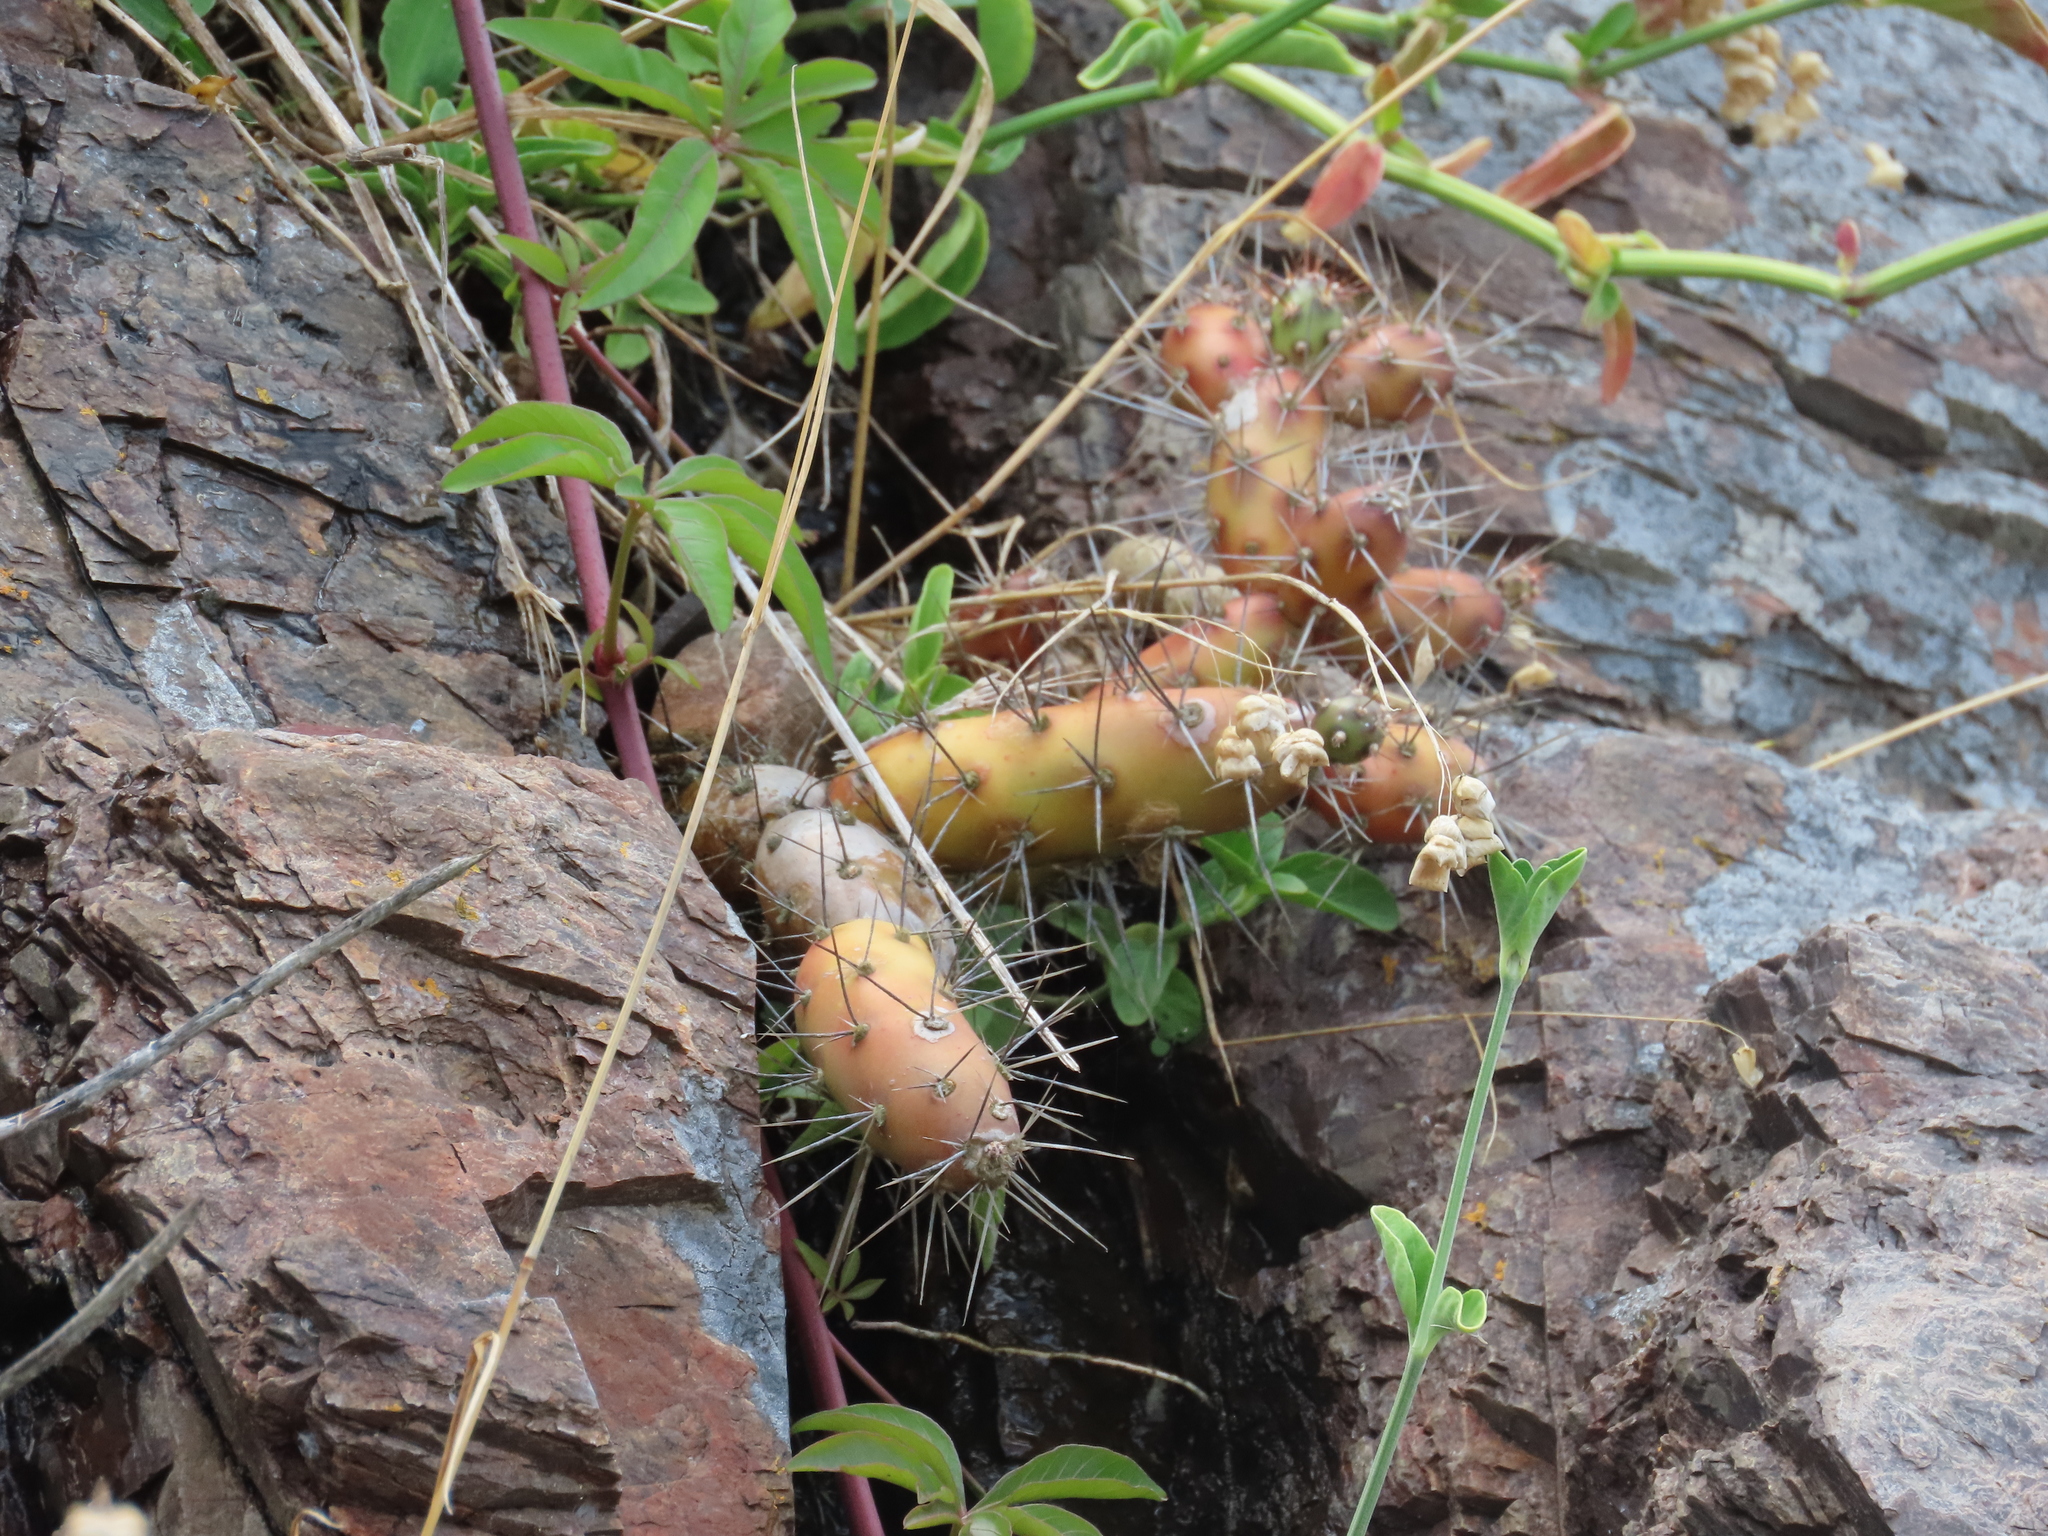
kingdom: Plantae
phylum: Tracheophyta
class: Magnoliopsida
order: Caryophyllales
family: Cactaceae
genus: Opuntia
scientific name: Opuntia aurantiaca
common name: Jointed pricklypear
